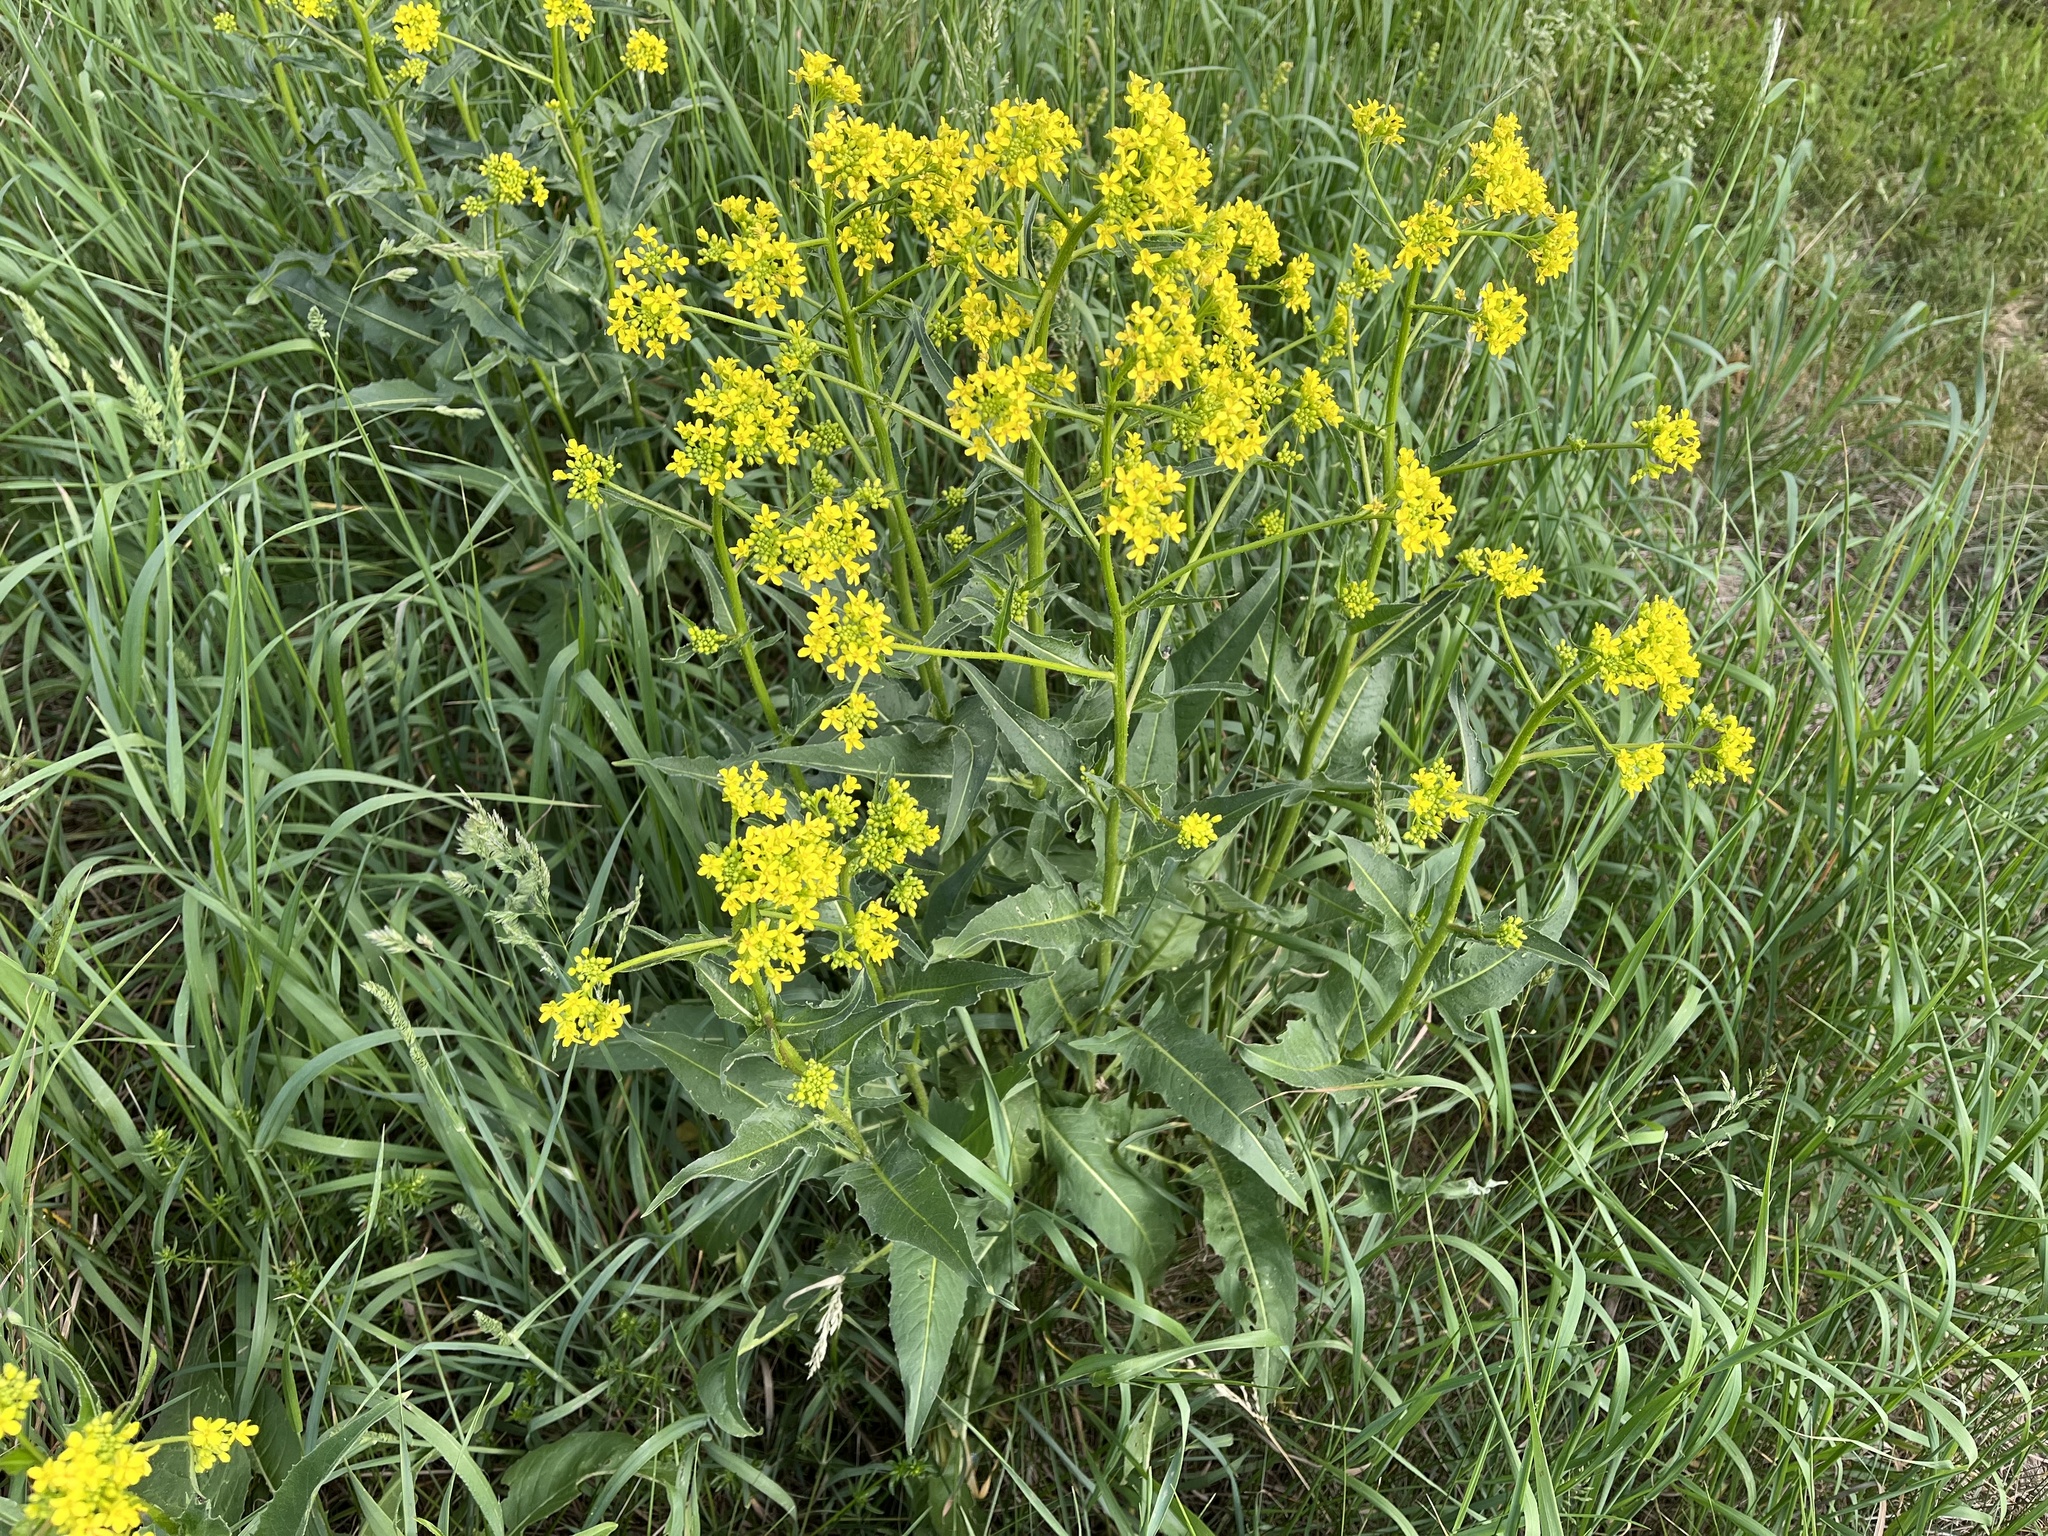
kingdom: Plantae
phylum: Tracheophyta
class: Magnoliopsida
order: Brassicales
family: Brassicaceae
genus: Bunias
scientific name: Bunias orientalis
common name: Warty-cabbage
